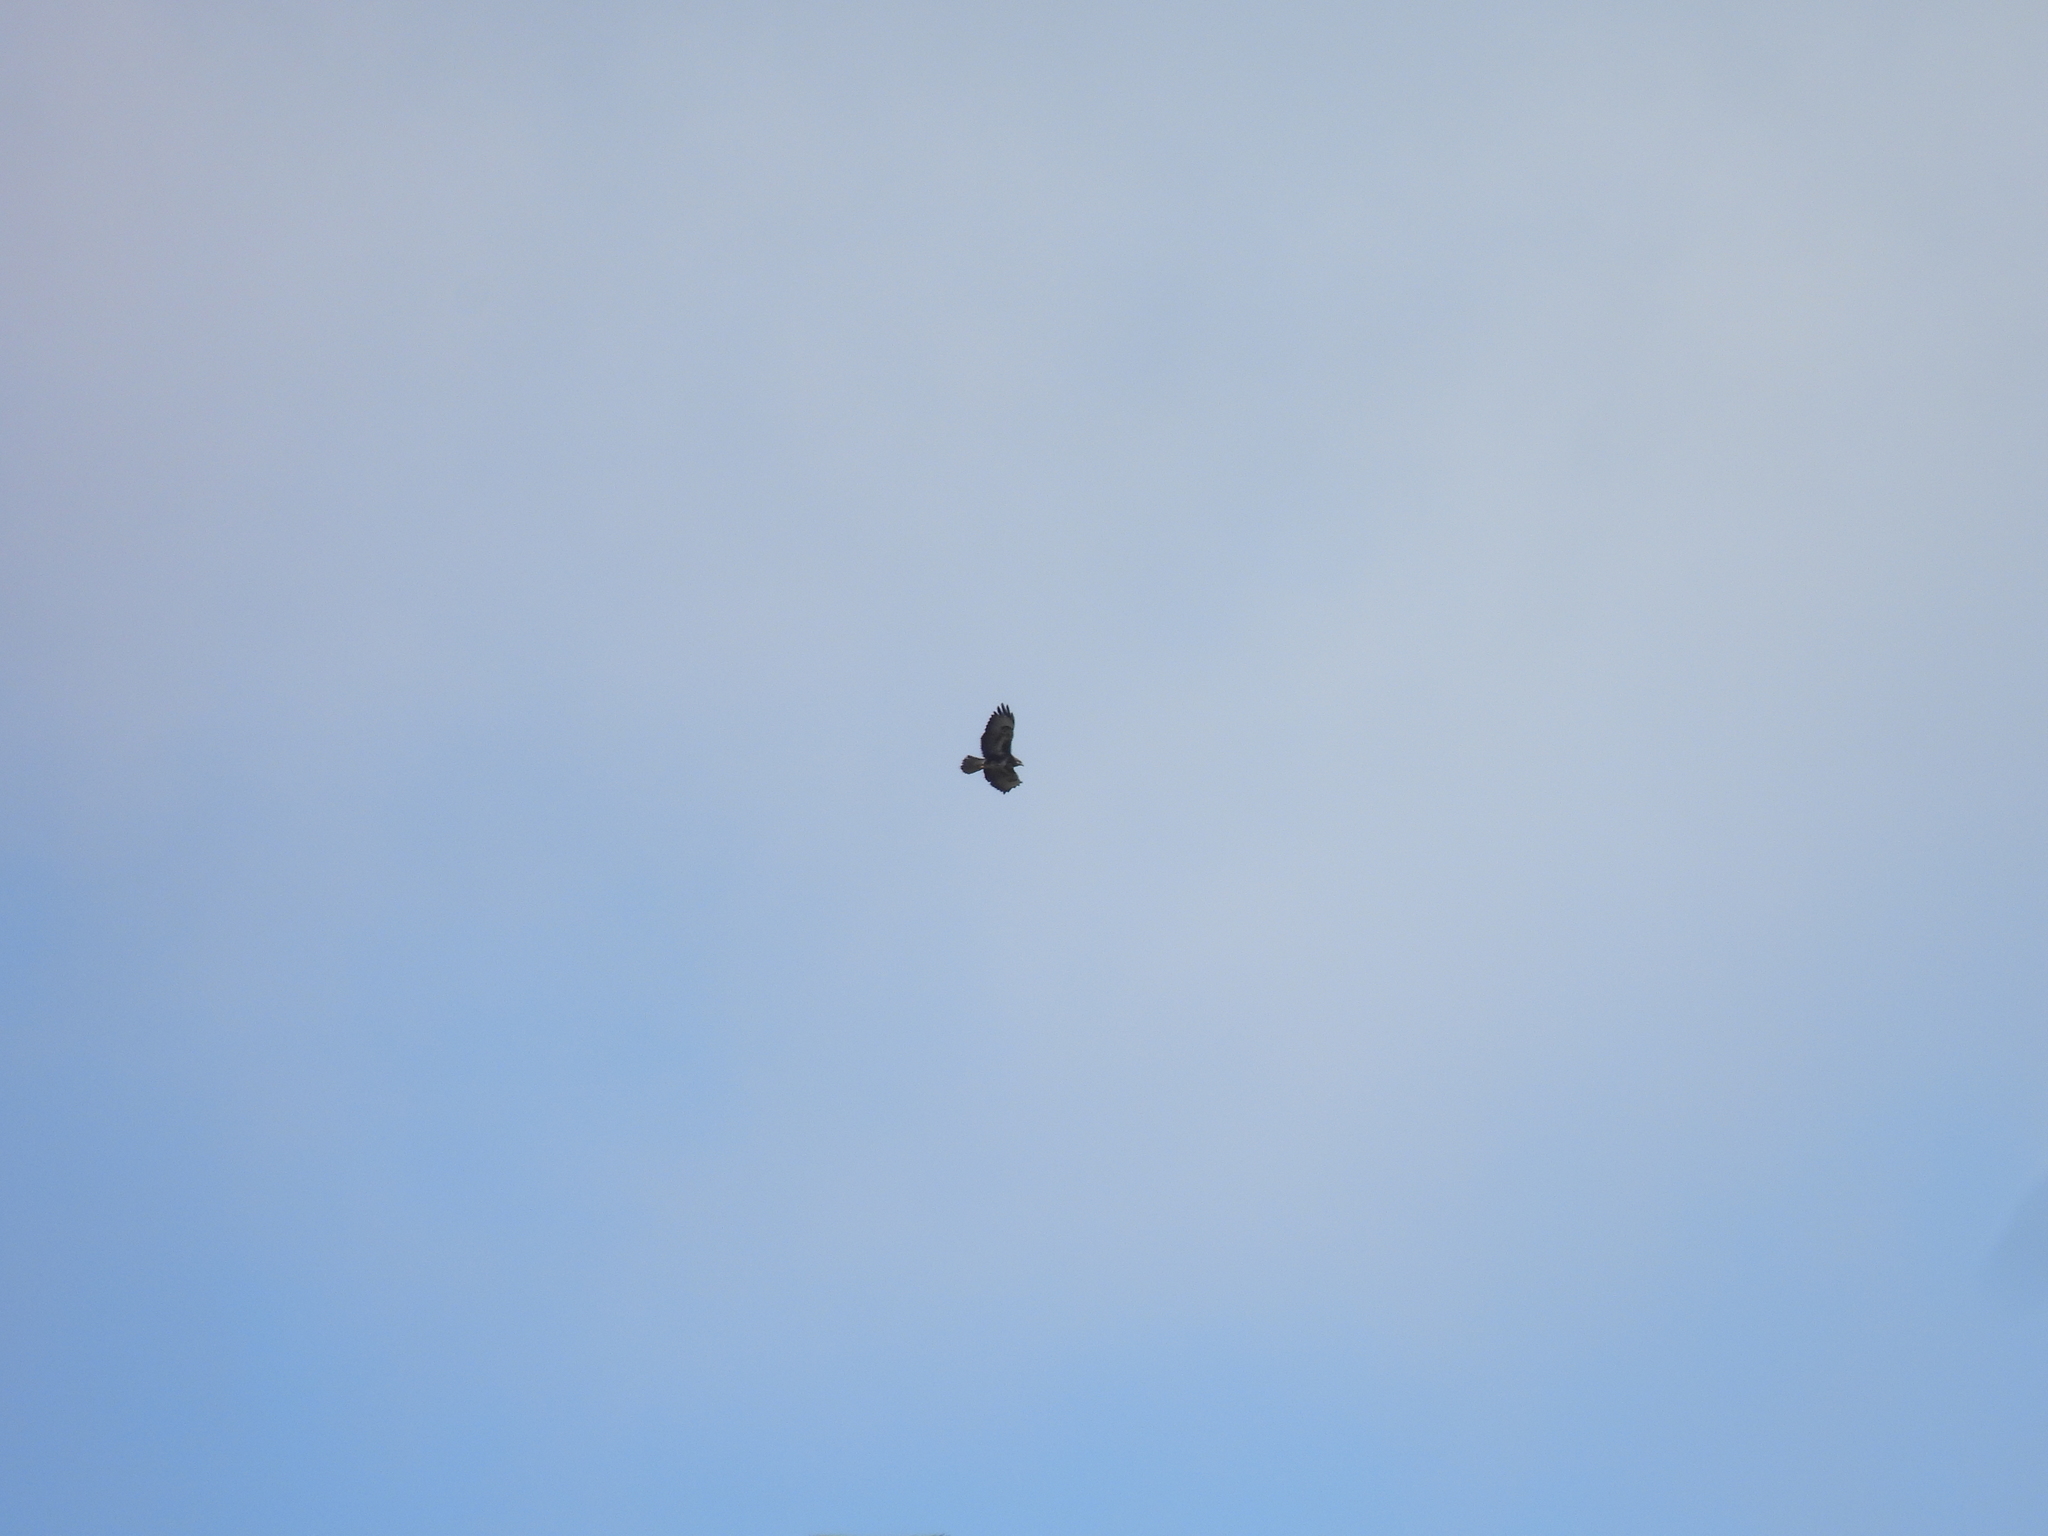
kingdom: Animalia
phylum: Chordata
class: Aves
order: Accipitriformes
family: Accipitridae
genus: Buteo
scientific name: Buteo buteo
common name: Common buzzard
